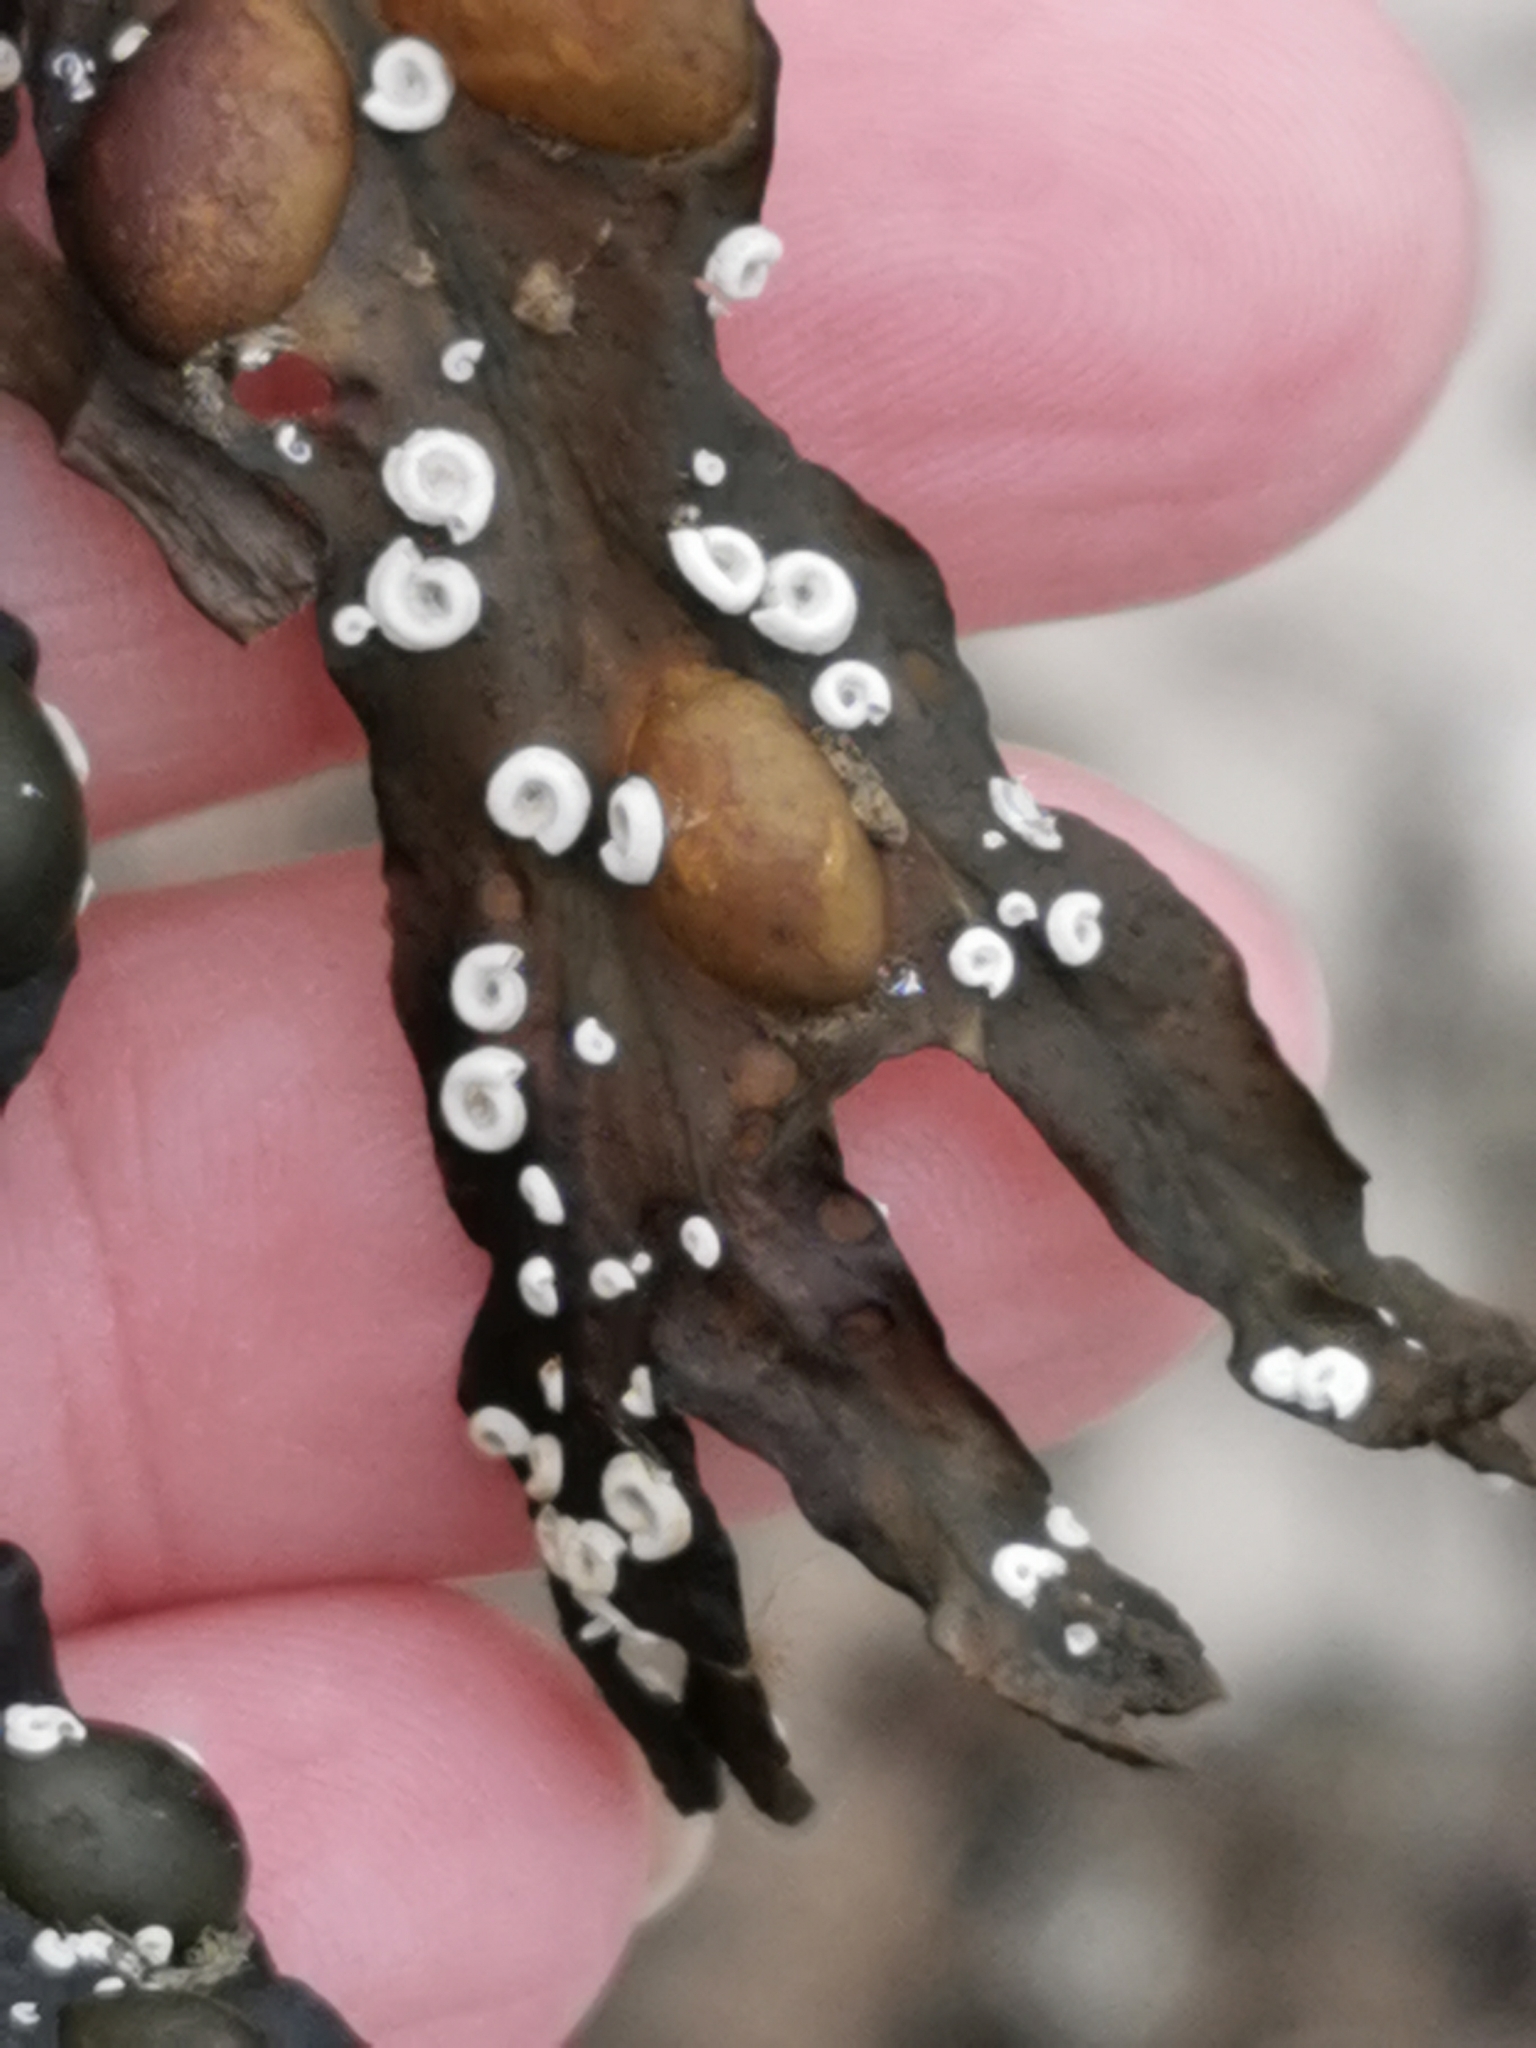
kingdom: Animalia
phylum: Annelida
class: Polychaeta
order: Sabellida
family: Serpulidae
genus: Spirorbis
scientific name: Spirorbis spirorbis
